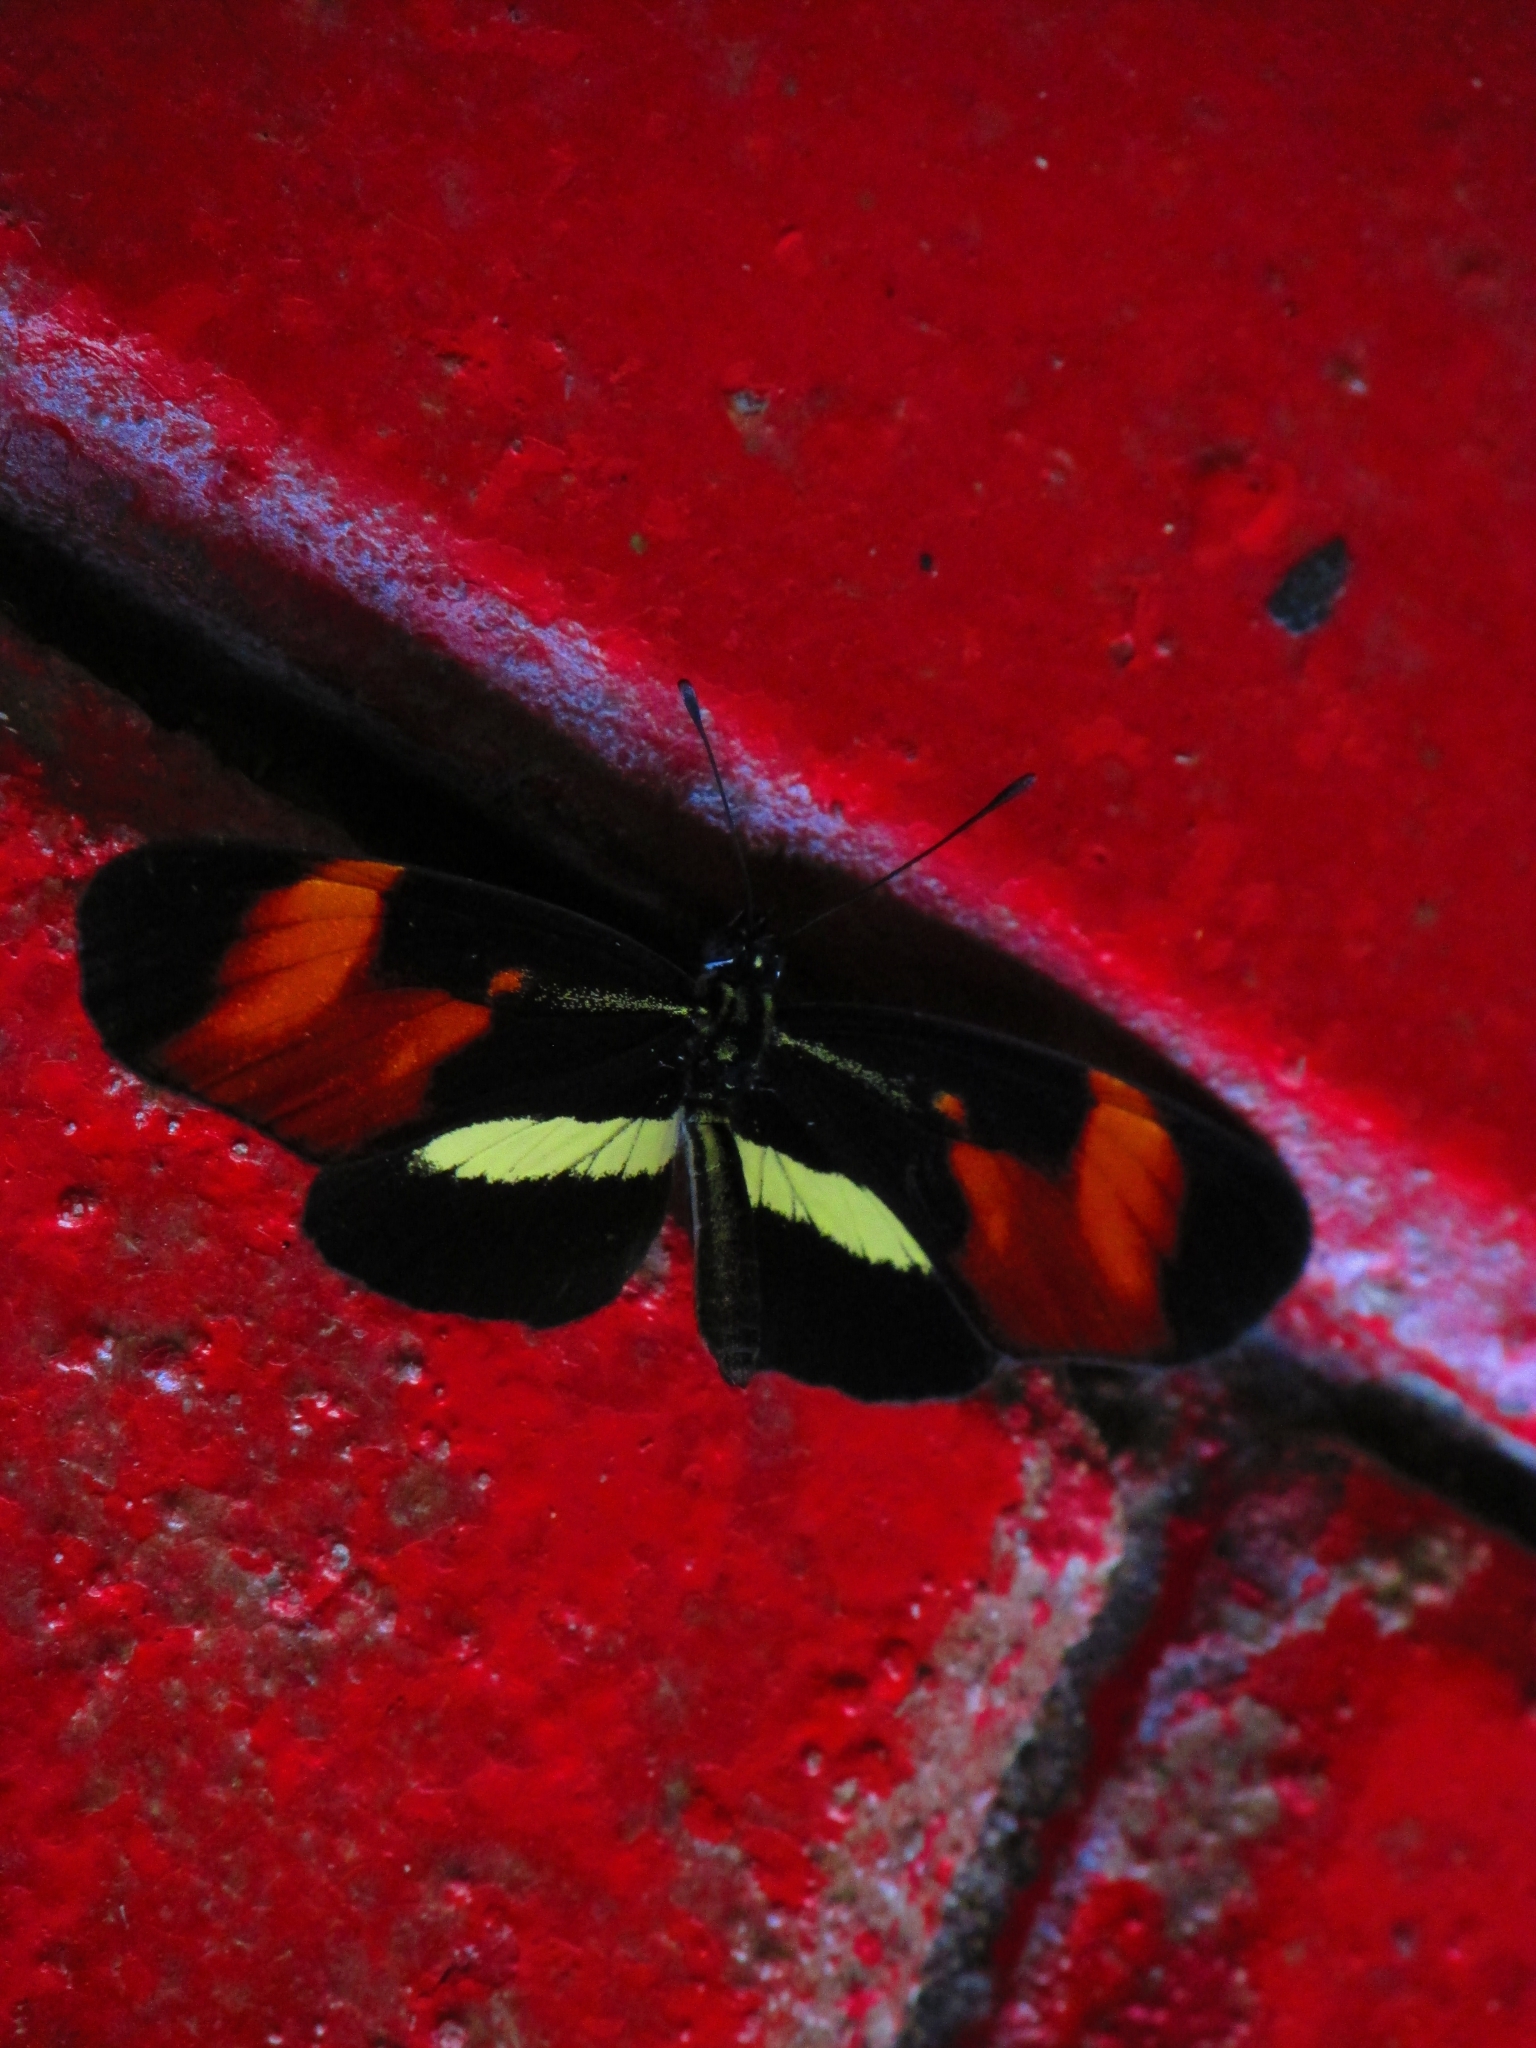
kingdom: Animalia
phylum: Arthropoda
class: Insecta
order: Lepidoptera
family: Nymphalidae
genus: Eresia
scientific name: Eresia lansdorfi
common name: Lansdorf's crescent
